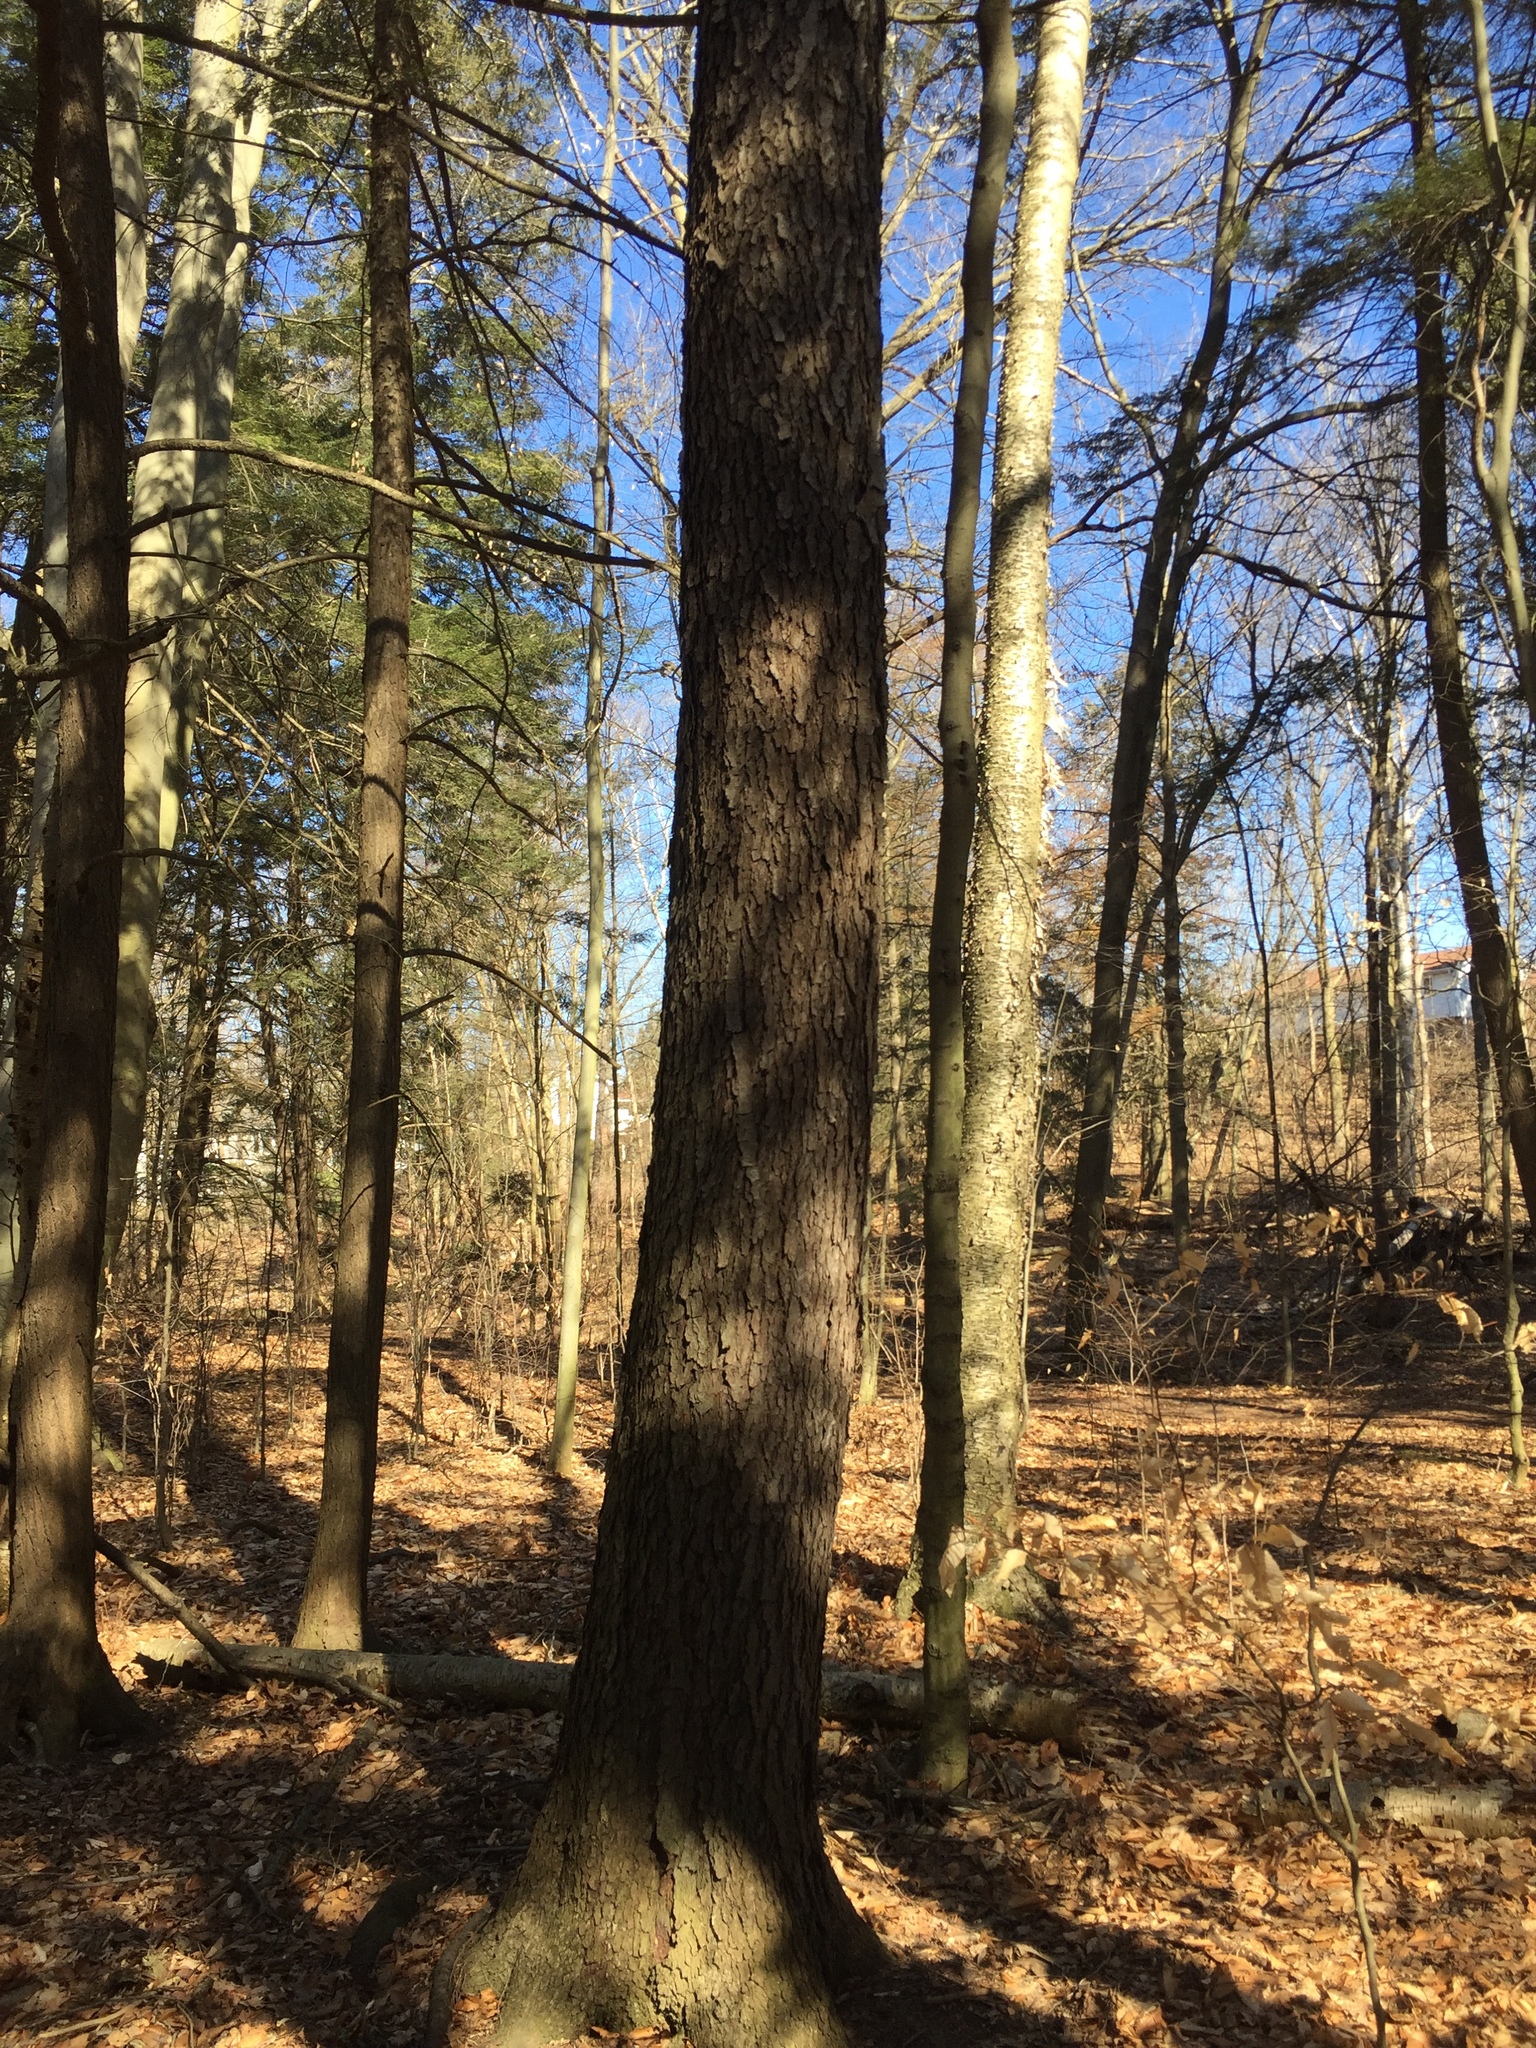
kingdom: Plantae
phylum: Tracheophyta
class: Magnoliopsida
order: Rosales
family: Rosaceae
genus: Prunus
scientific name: Prunus serotina
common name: Black cherry
